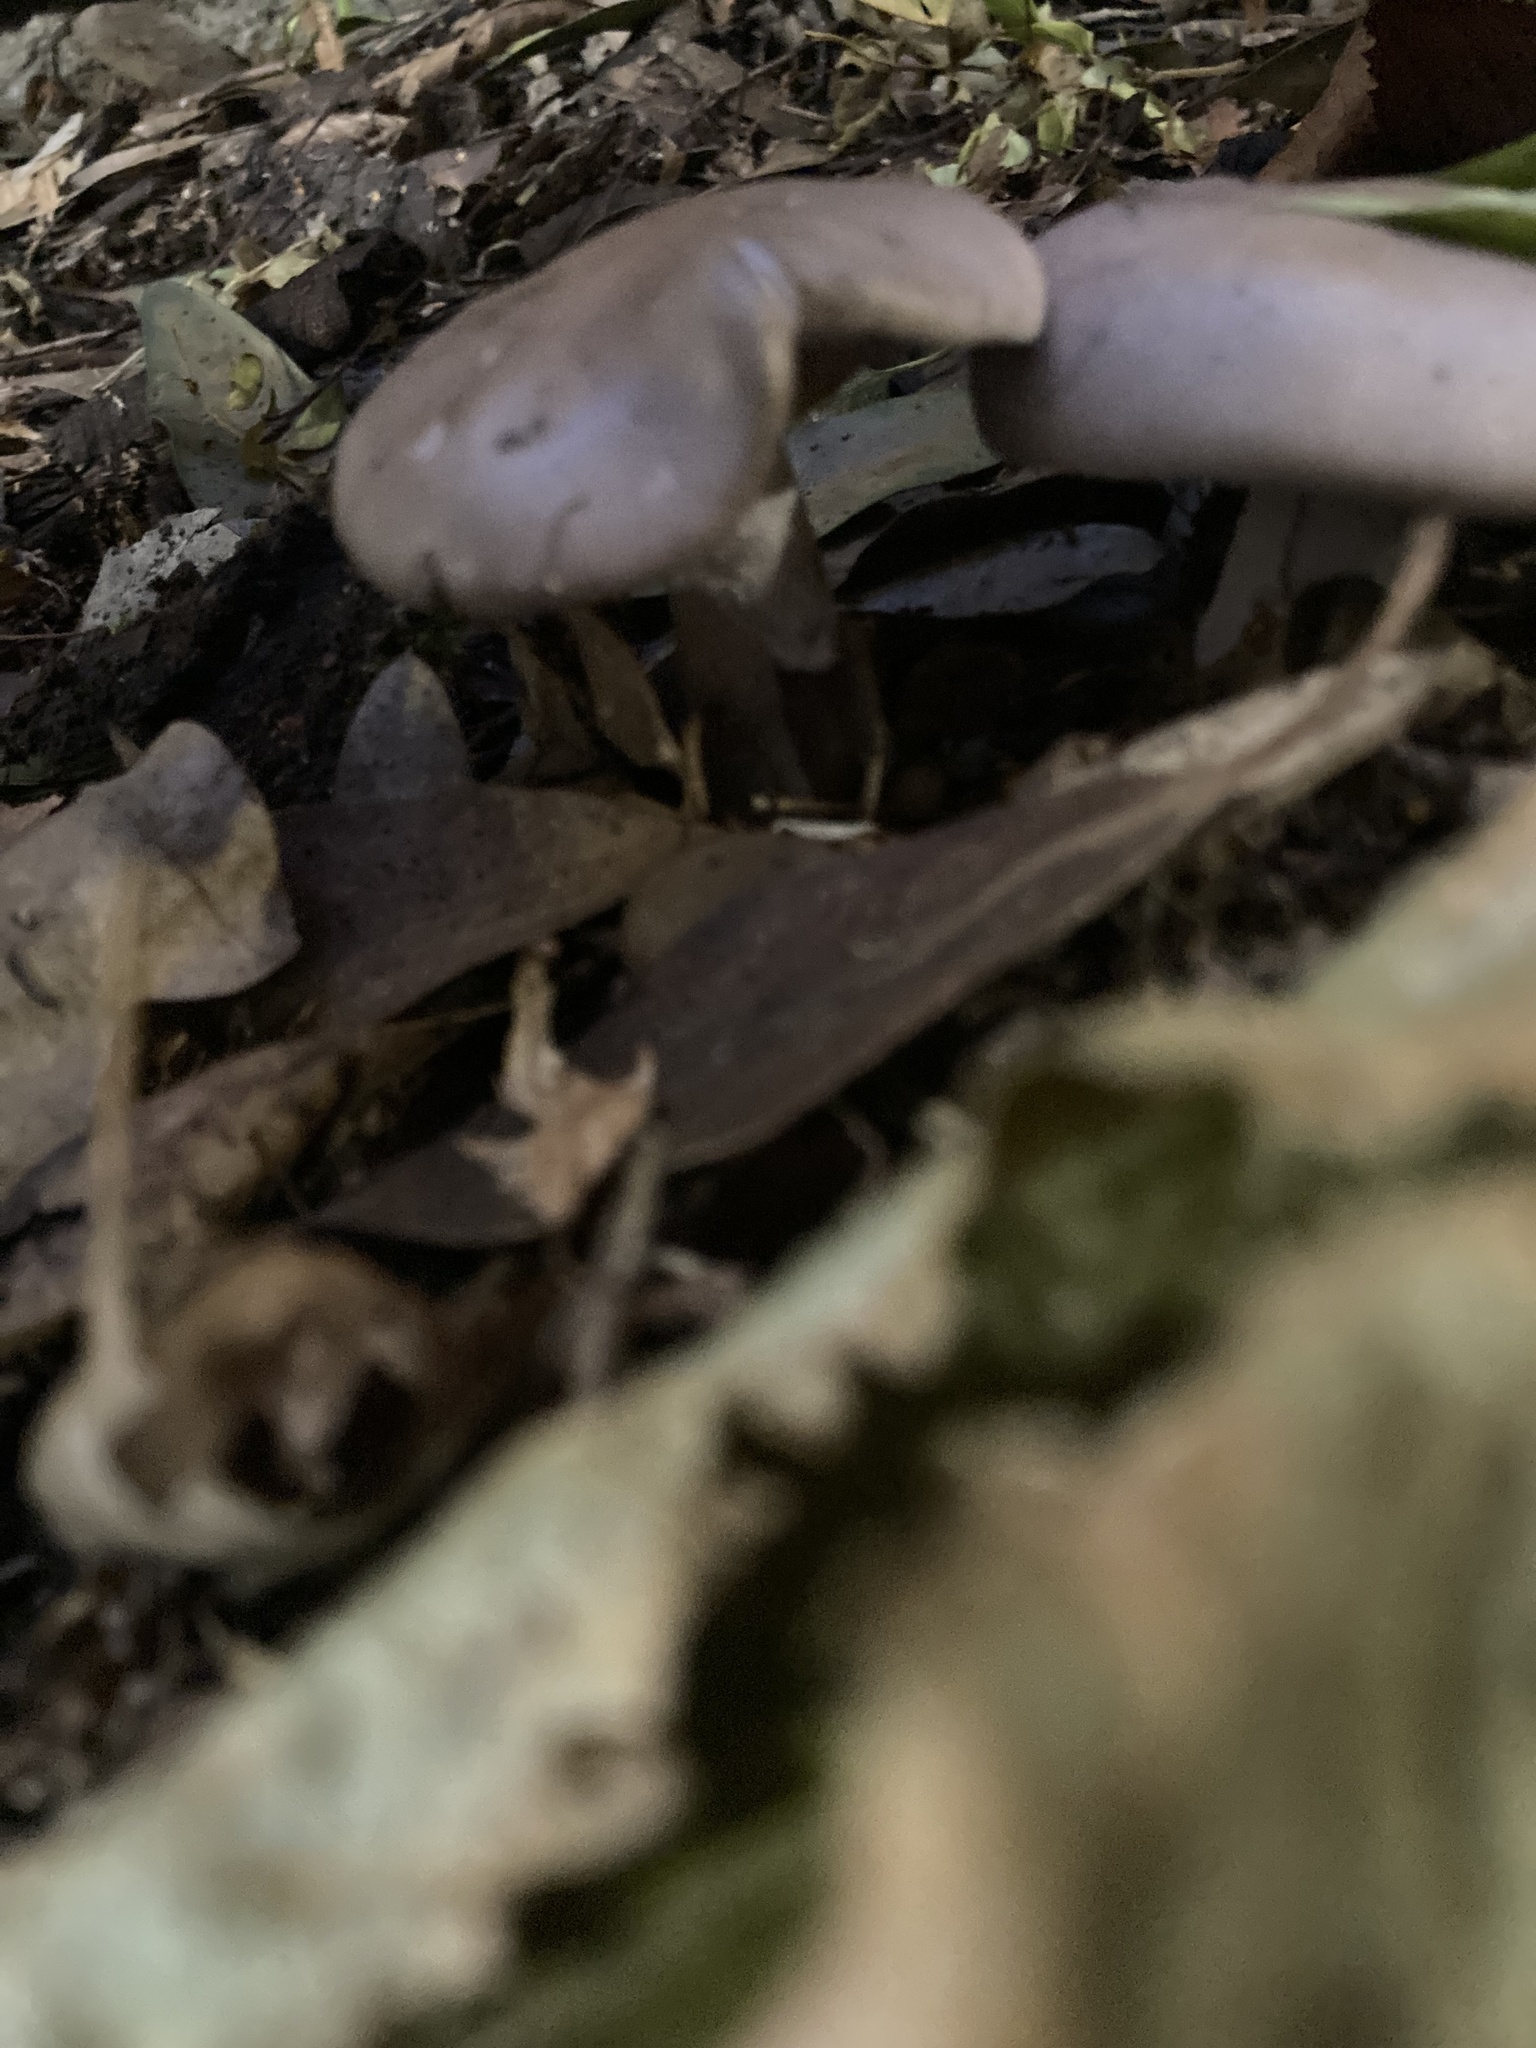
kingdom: Fungi
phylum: Basidiomycota
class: Agaricomycetes
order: Agaricales
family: Tricholomataceae
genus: Collybia
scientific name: Collybia
